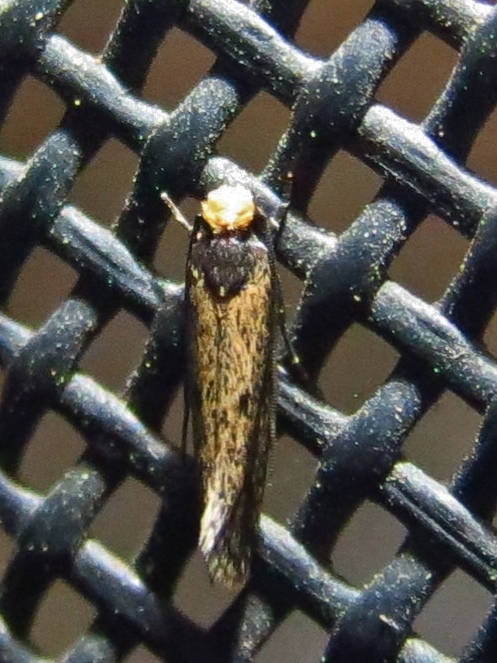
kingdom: Animalia
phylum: Arthropoda
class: Insecta
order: Lepidoptera
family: Tineidae
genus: Tinea
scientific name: Tinea apicimaculella
